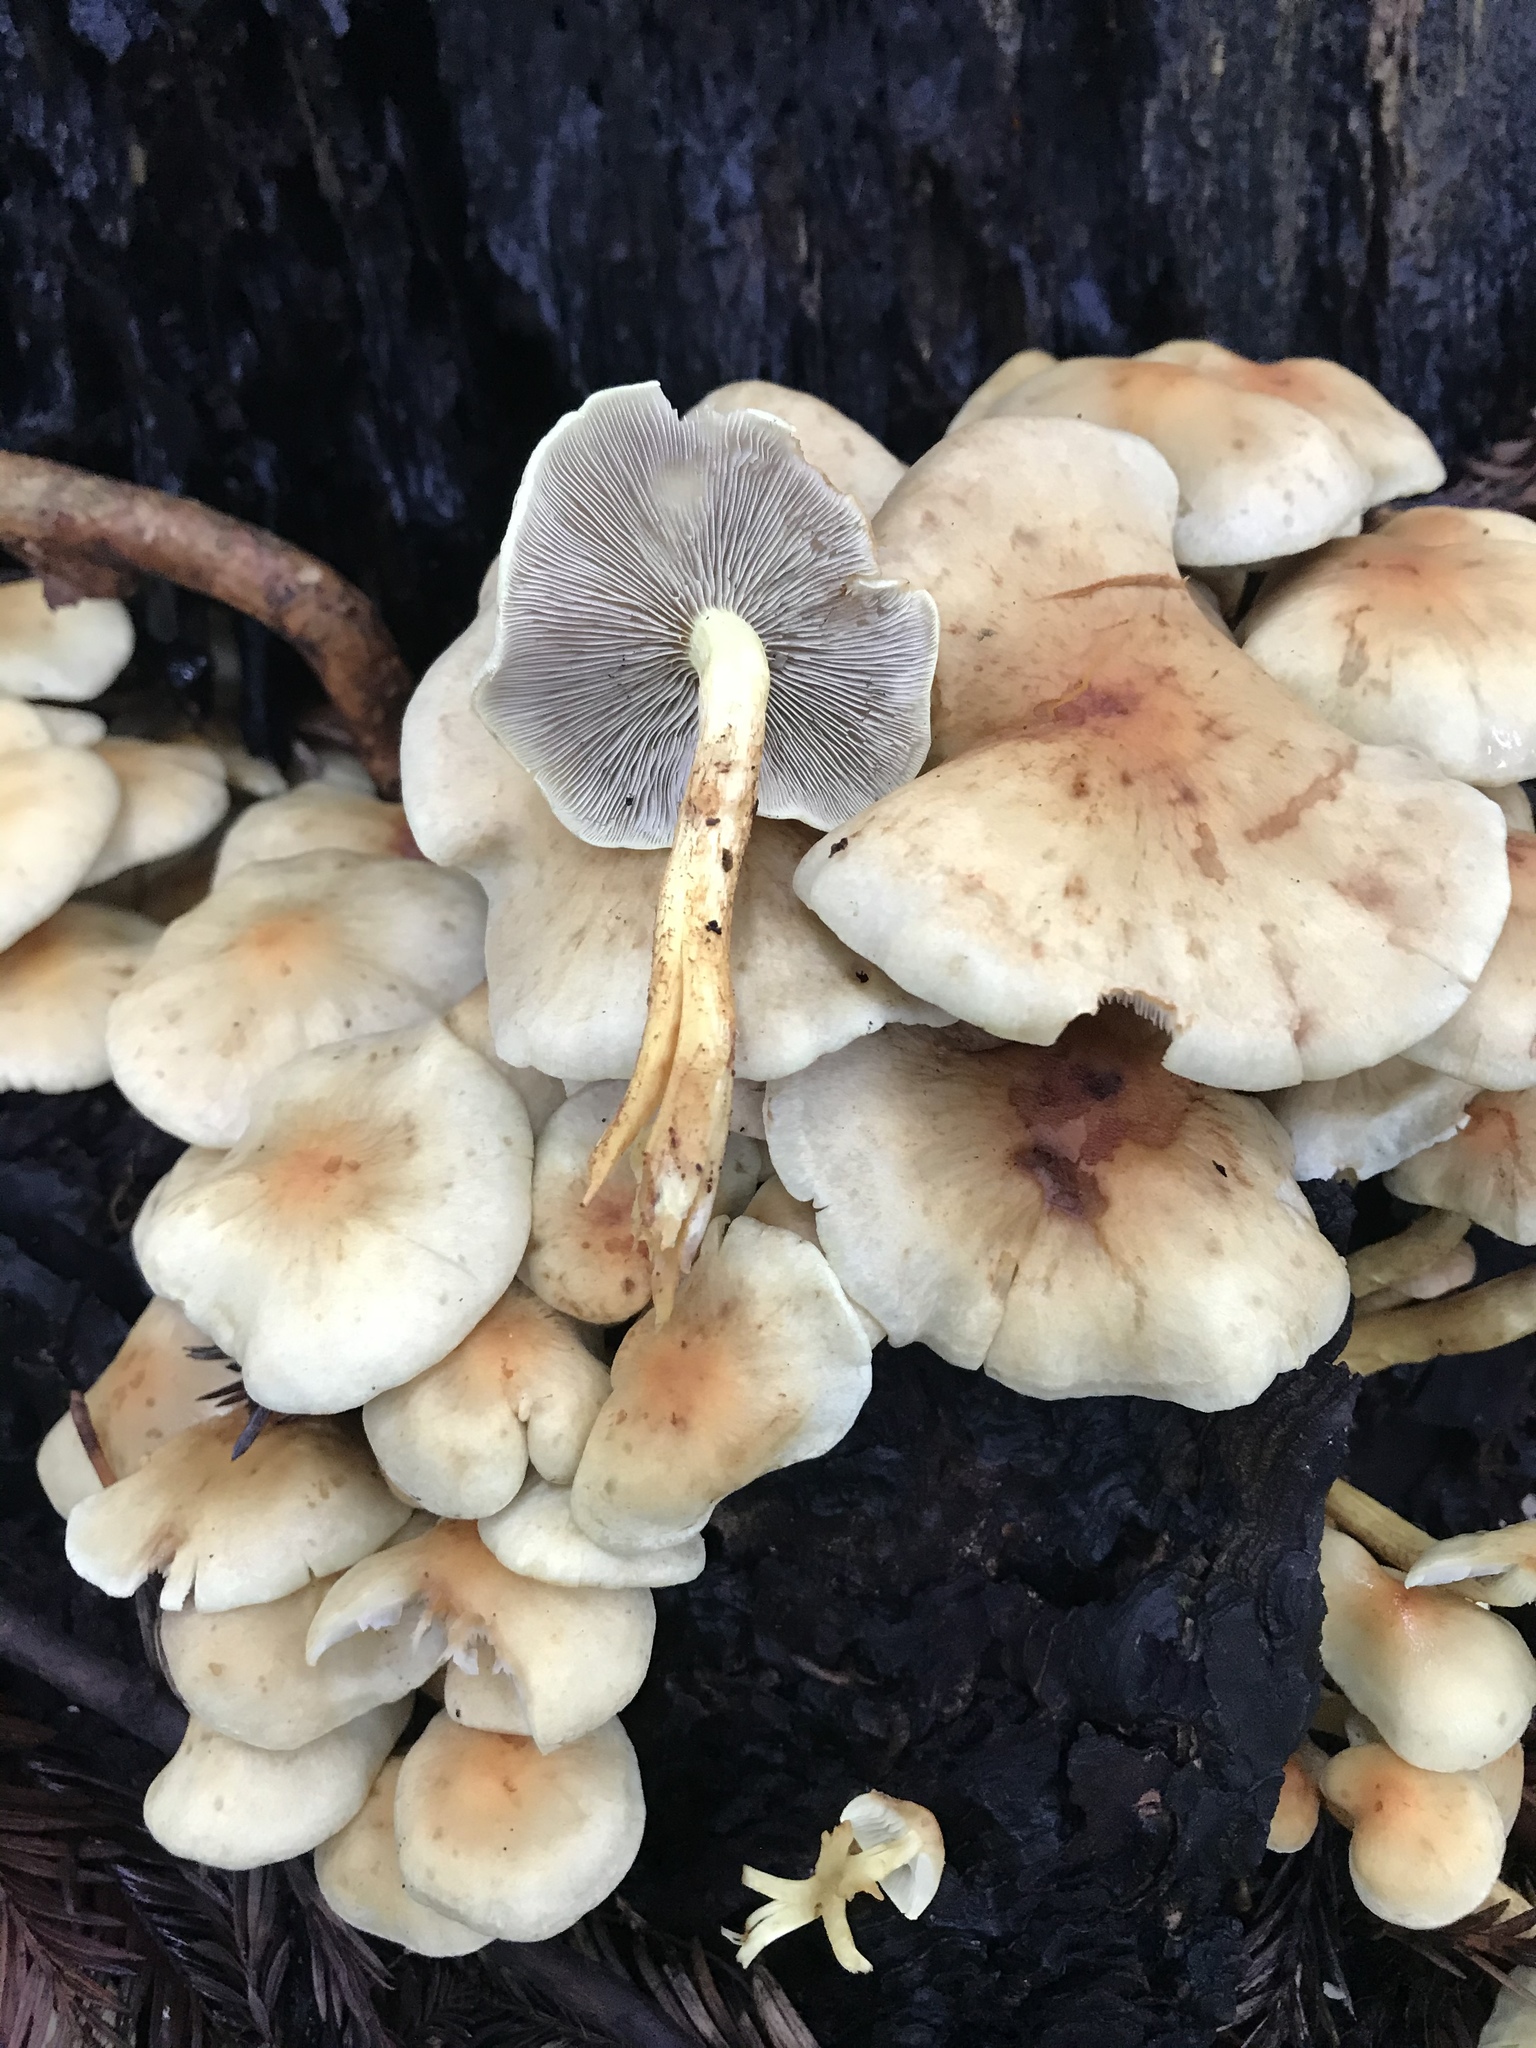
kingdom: Fungi
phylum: Basidiomycota
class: Agaricomycetes
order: Agaricales
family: Strophariaceae
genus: Hypholoma
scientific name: Hypholoma capnoides
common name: Conifer tuft
